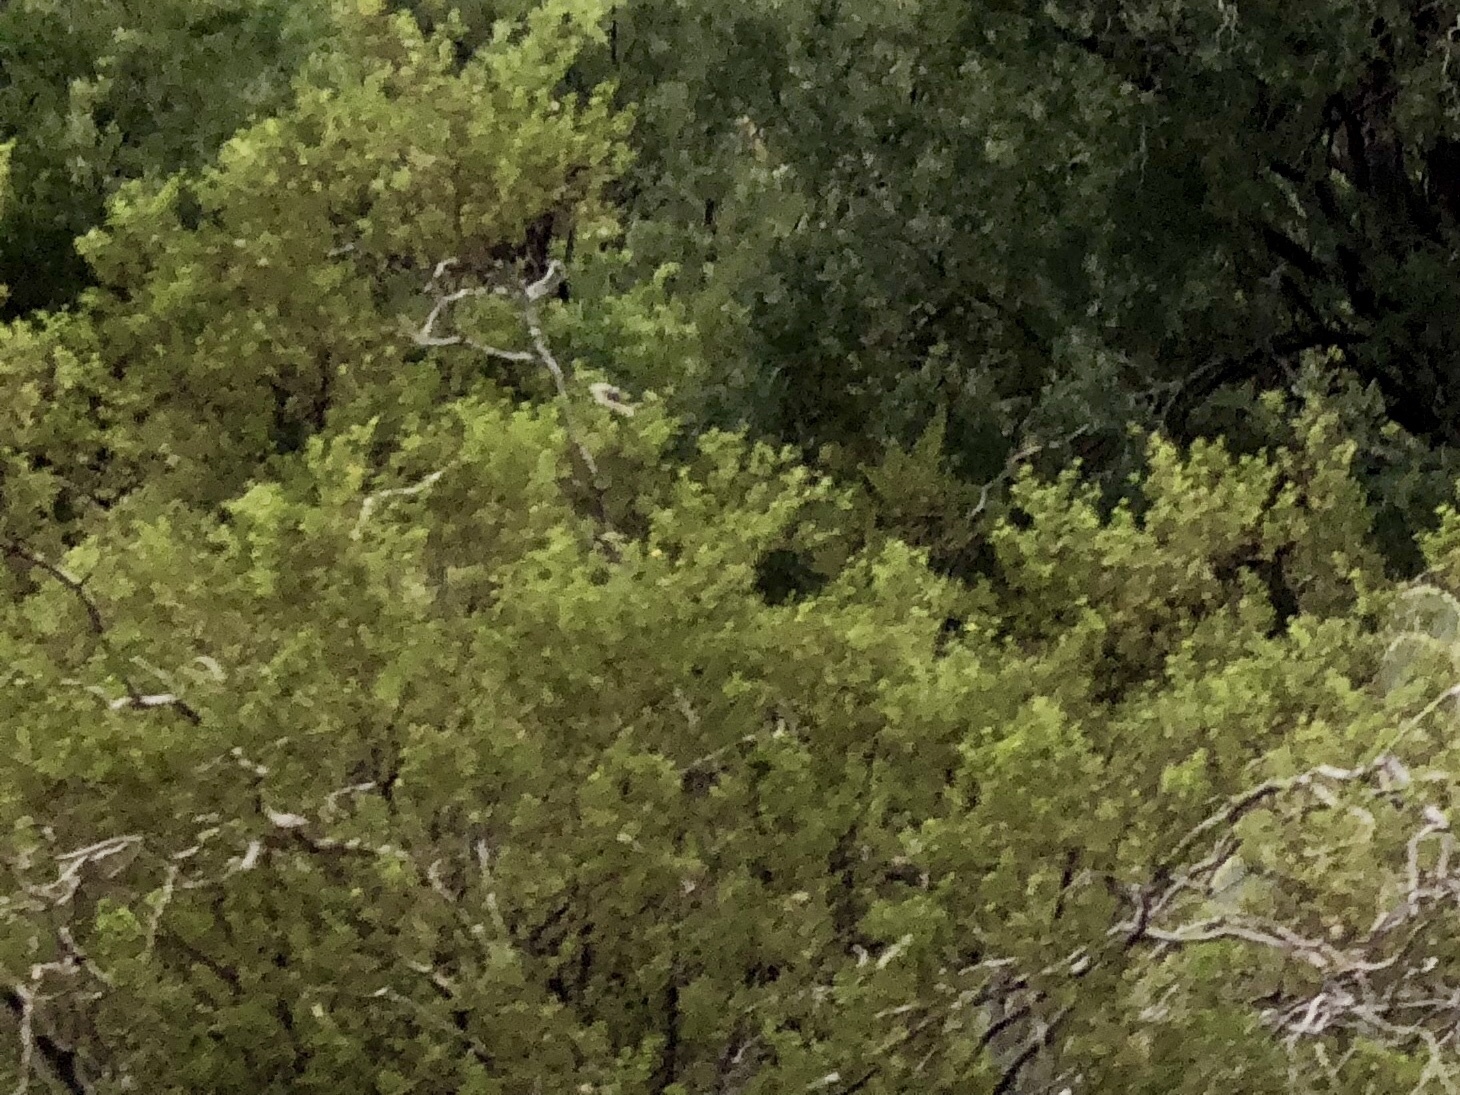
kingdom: Plantae
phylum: Tracheophyta
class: Magnoliopsida
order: Zygophyllales
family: Zygophyllaceae
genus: Larrea
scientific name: Larrea tridentata
